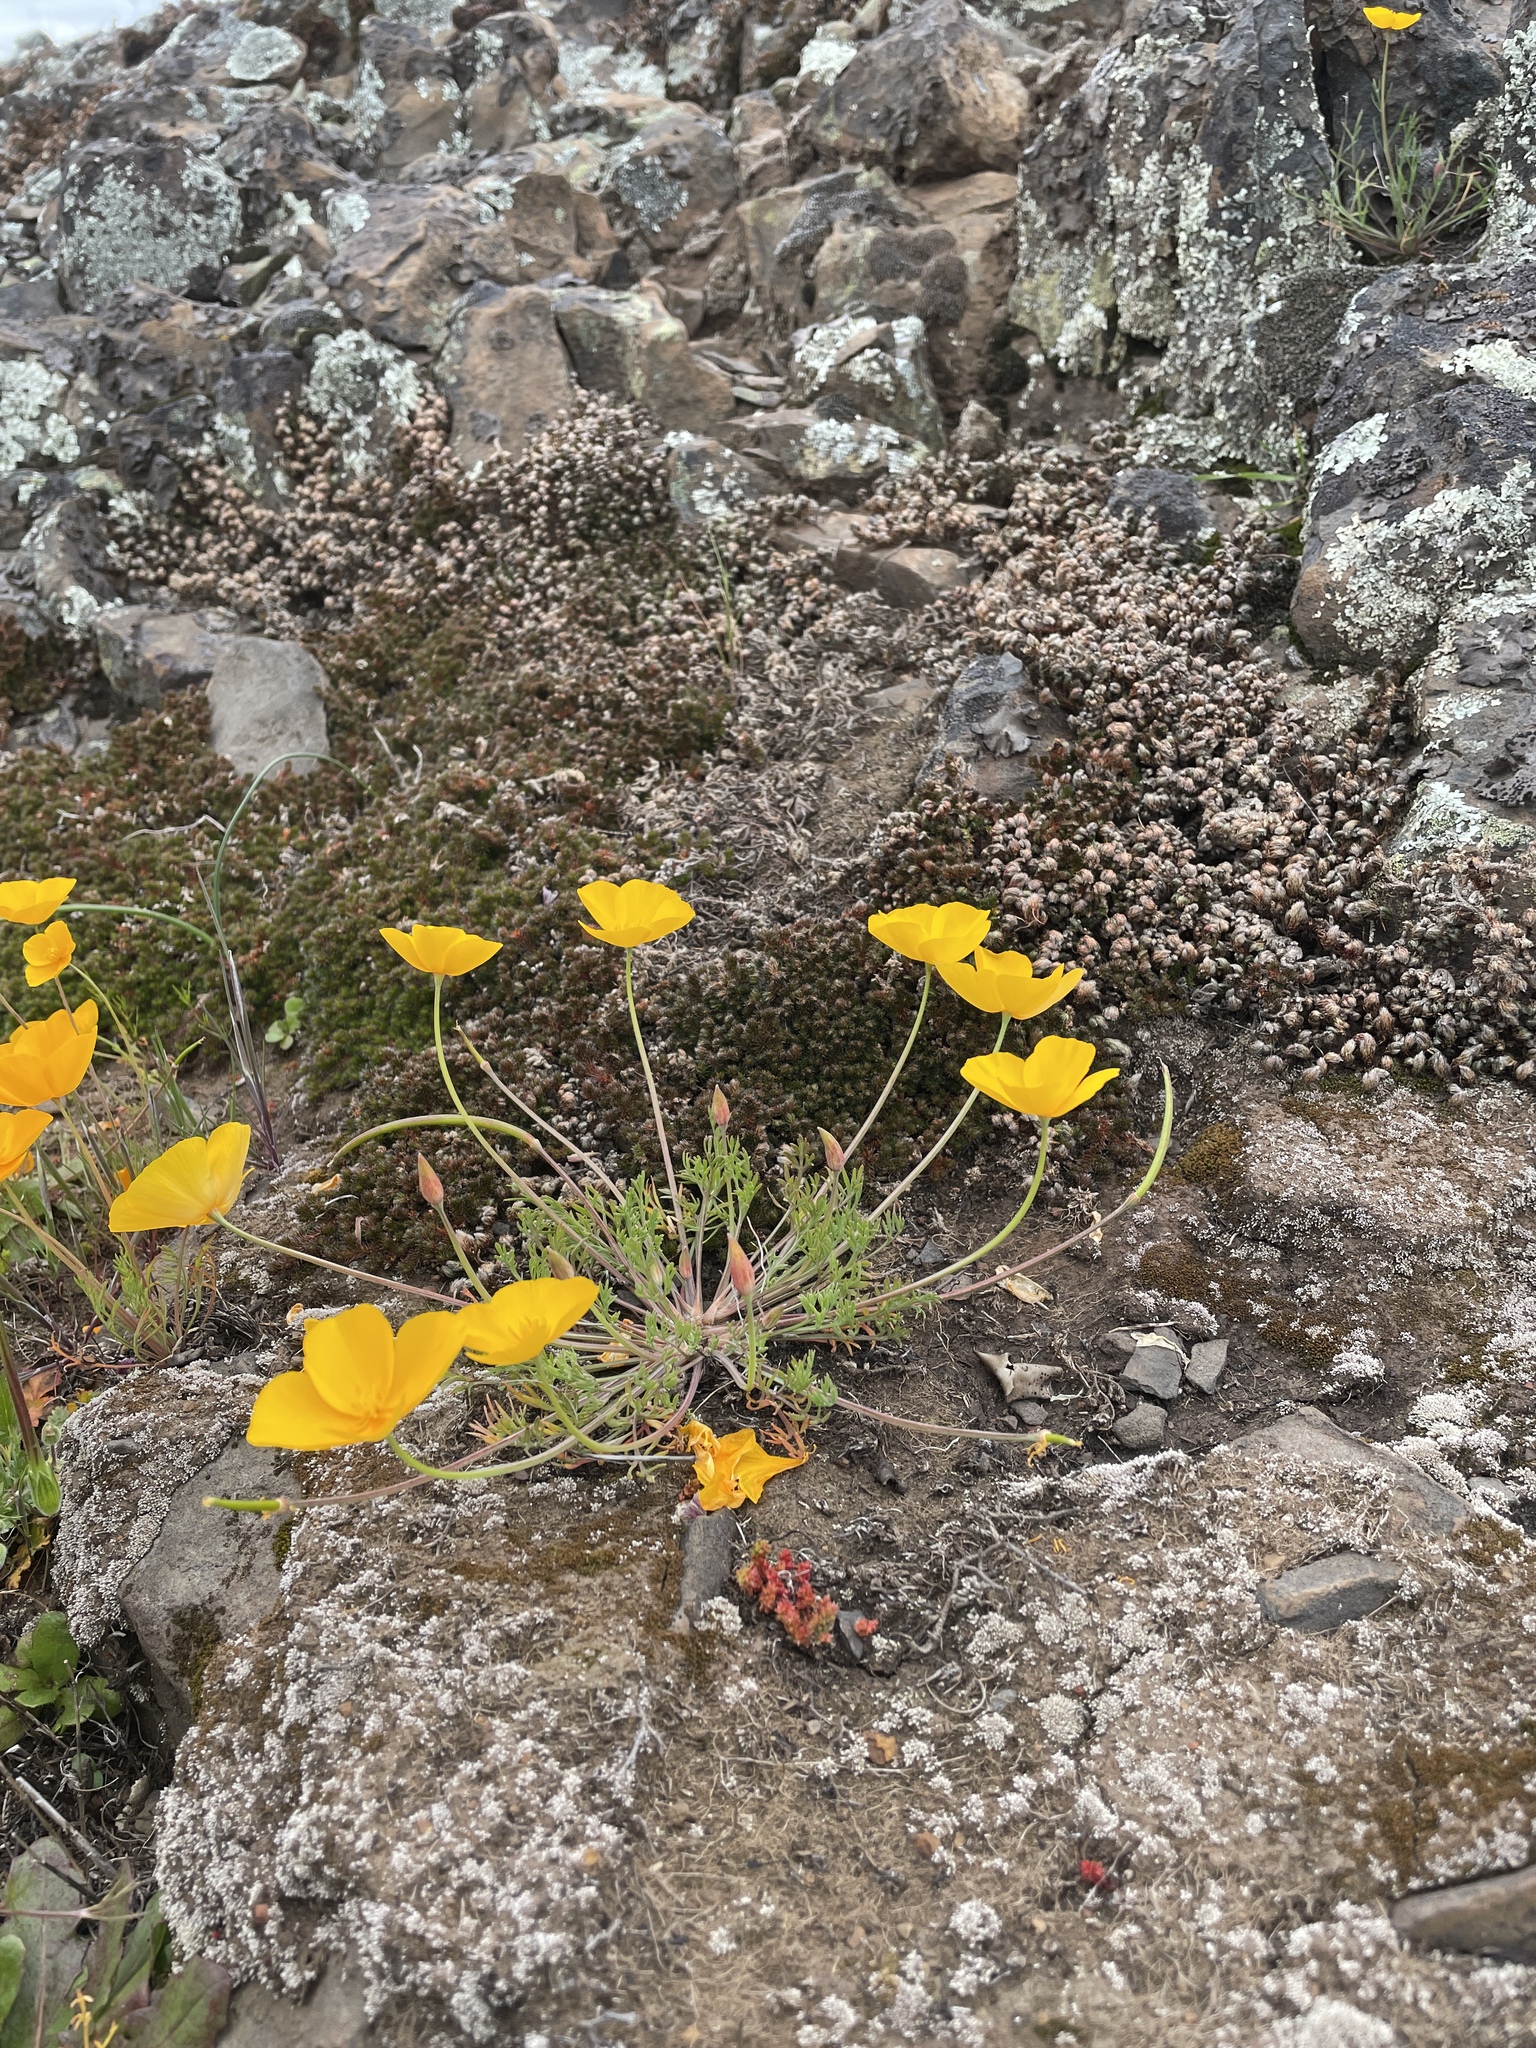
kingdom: Plantae
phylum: Tracheophyta
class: Magnoliopsida
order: Ranunculales
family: Papaveraceae
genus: Eschscholzia
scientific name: Eschscholzia lobbii
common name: Frying-pans
